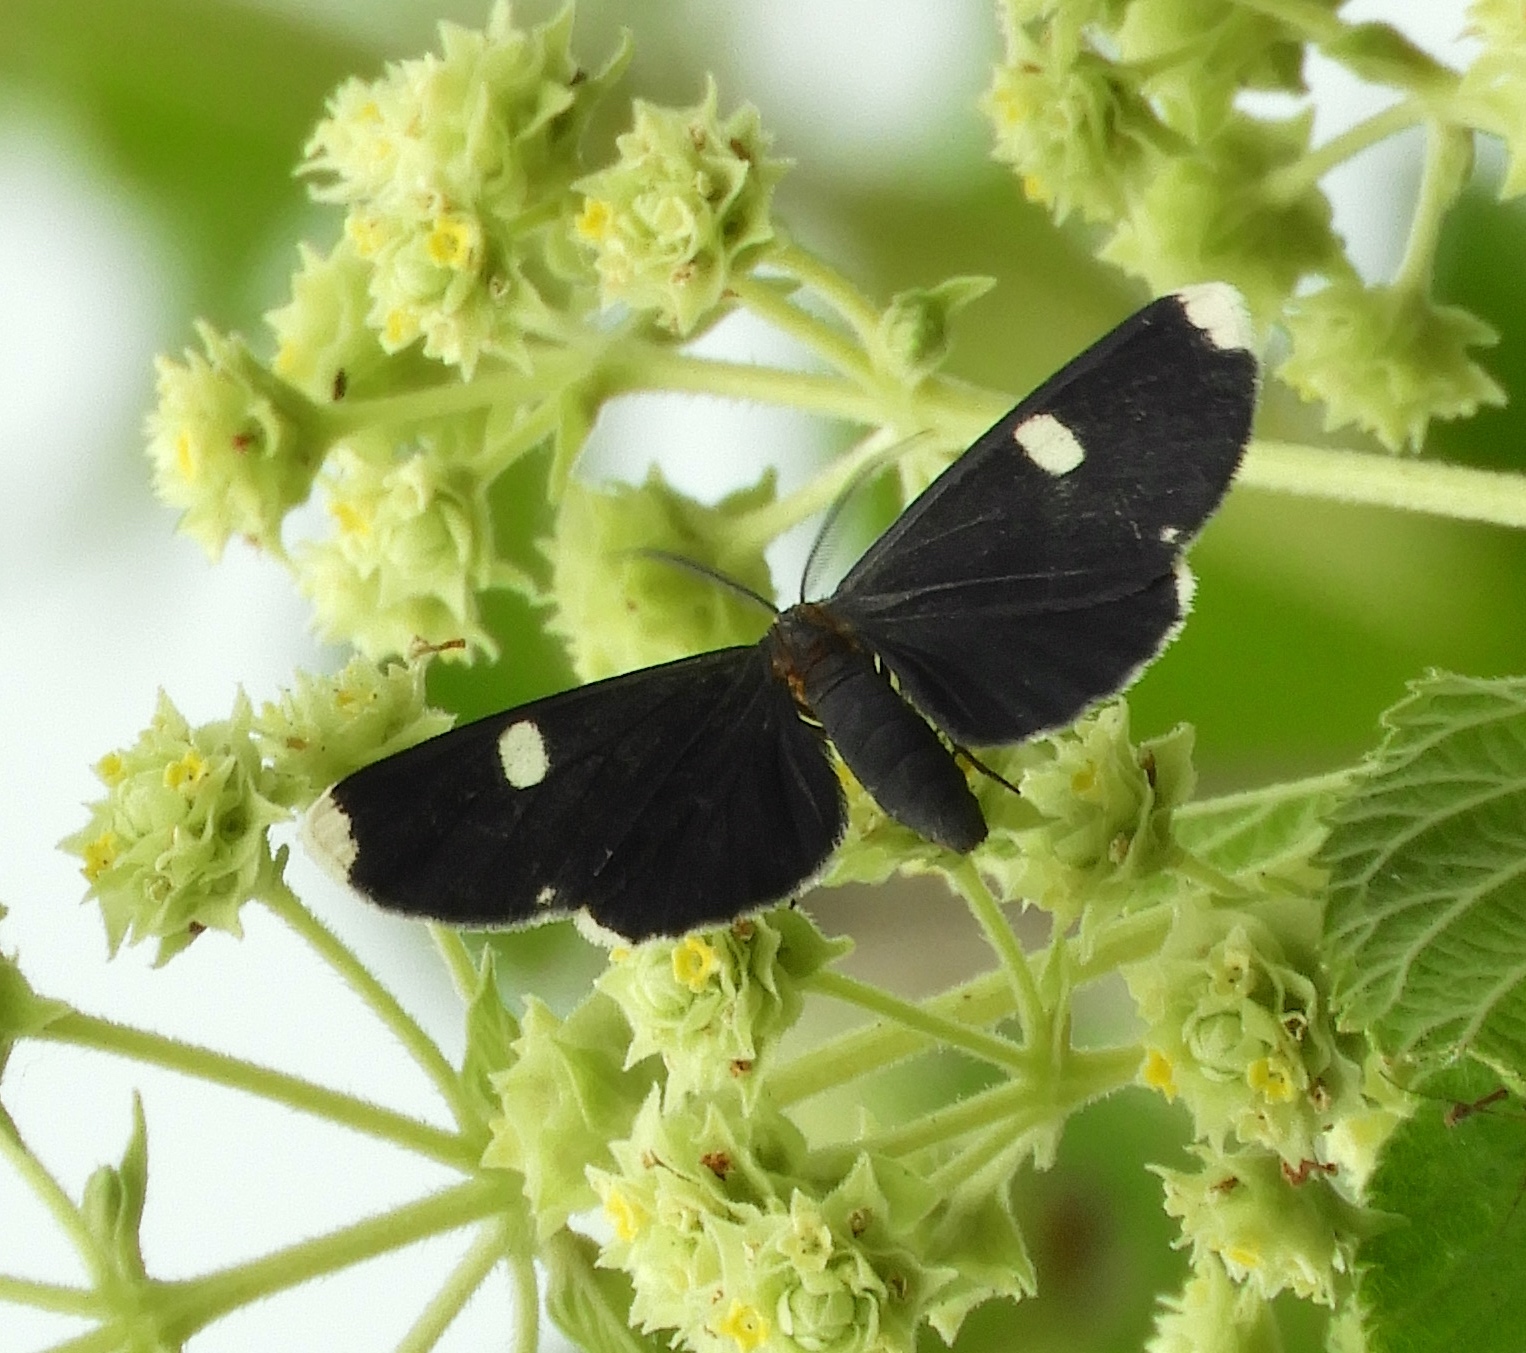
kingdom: Animalia
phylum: Arthropoda
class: Insecta
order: Lepidoptera
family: Geometridae
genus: Melanchroia
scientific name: Melanchroia vazquezae
